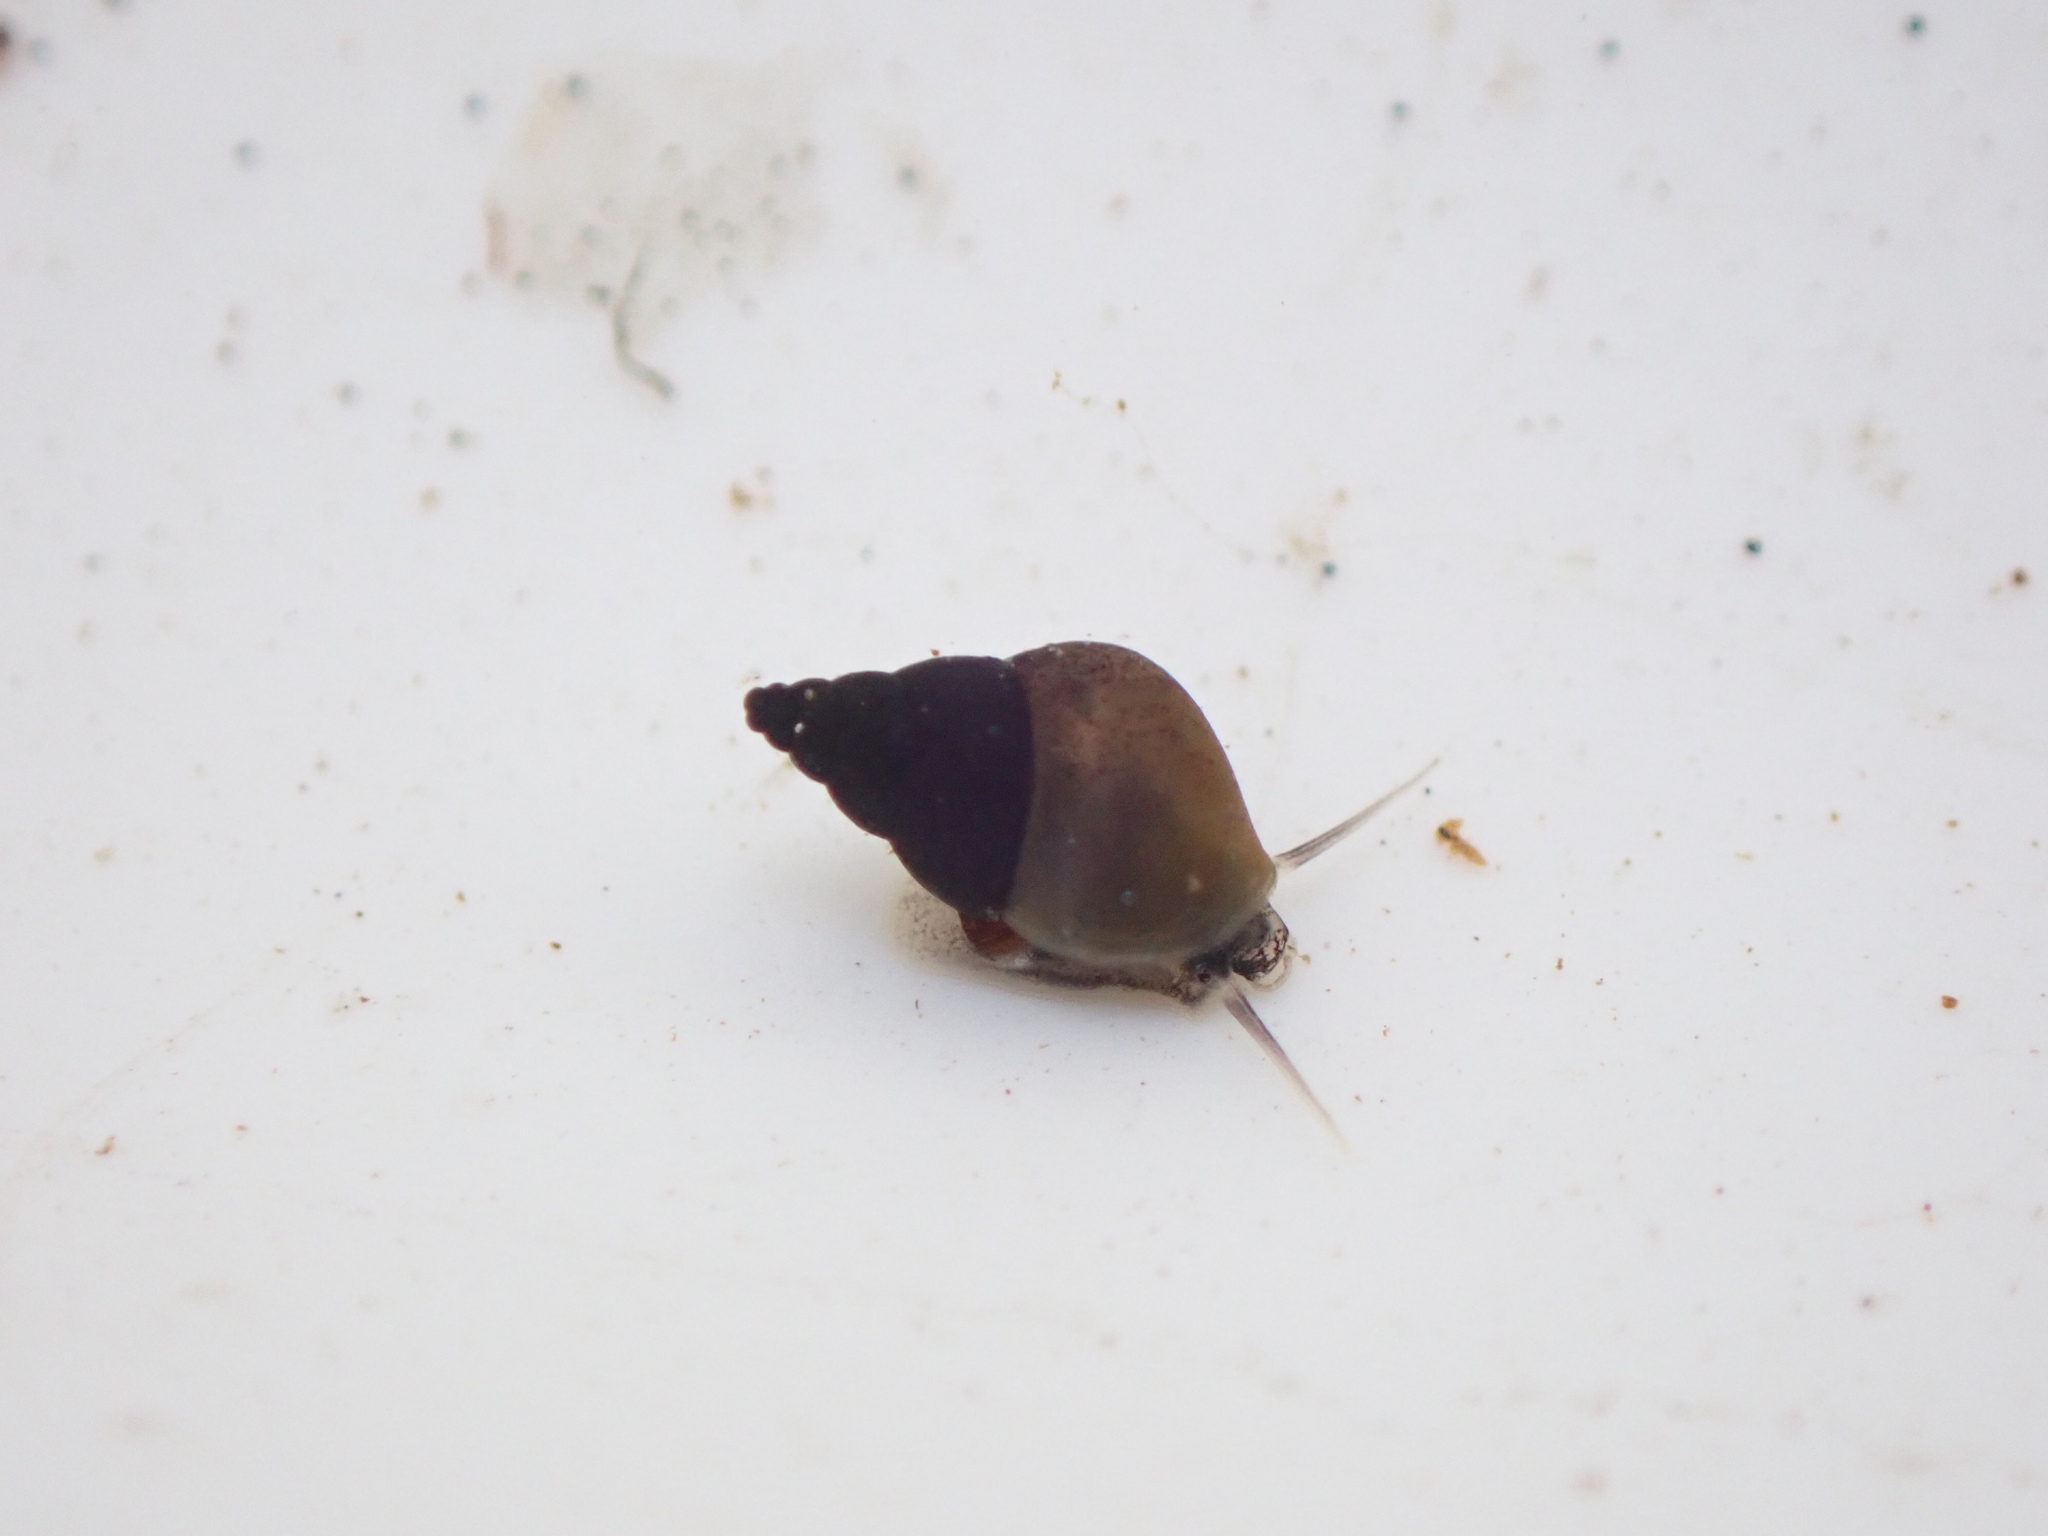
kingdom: Animalia
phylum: Mollusca
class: Gastropoda
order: Littorinimorpha
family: Tateidae
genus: Potamopyrgus
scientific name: Potamopyrgus antipodarum
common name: Jenkins' spire snail
